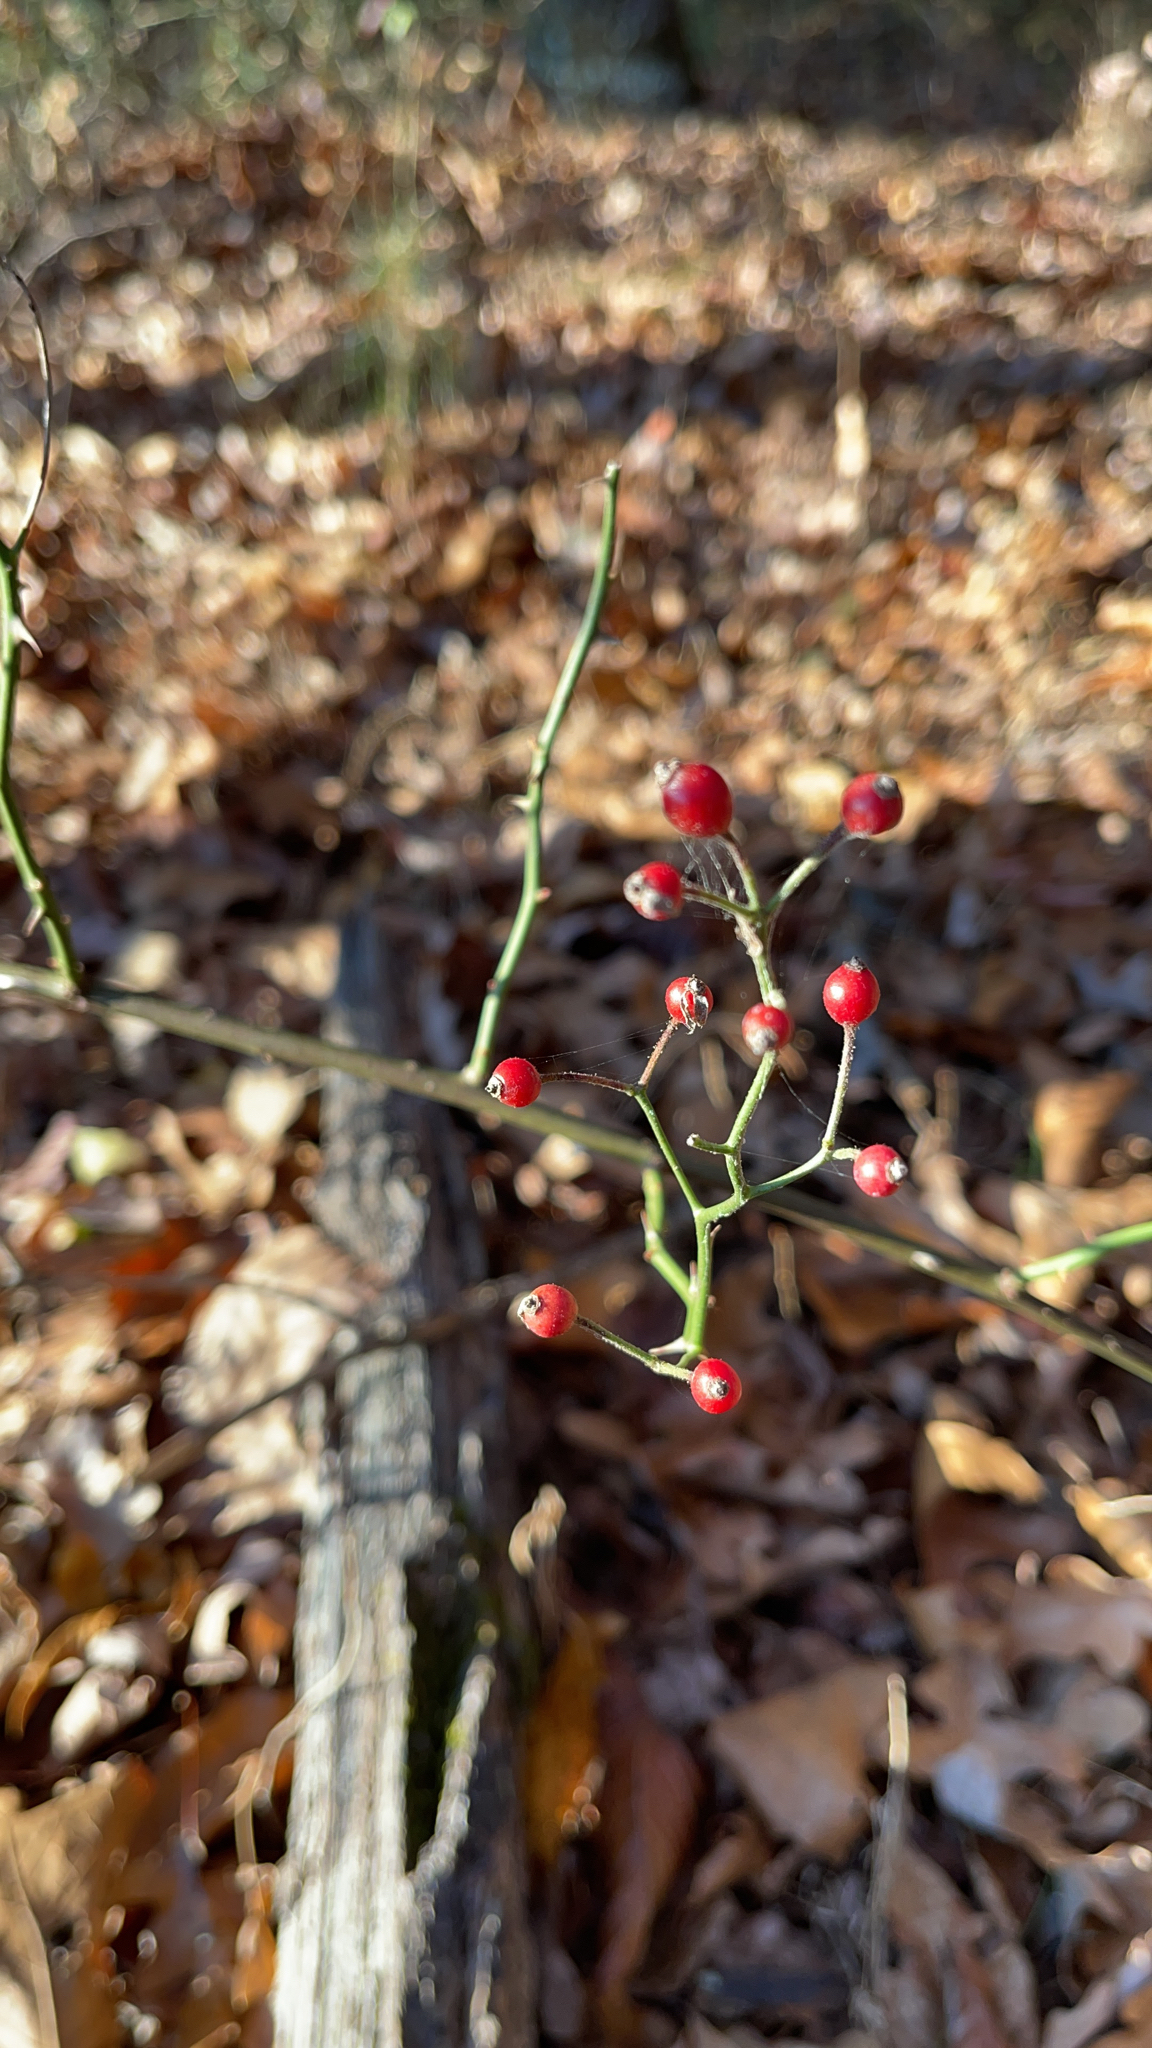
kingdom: Plantae
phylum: Tracheophyta
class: Magnoliopsida
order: Rosales
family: Rosaceae
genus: Rosa
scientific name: Rosa multiflora
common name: Multiflora rose
